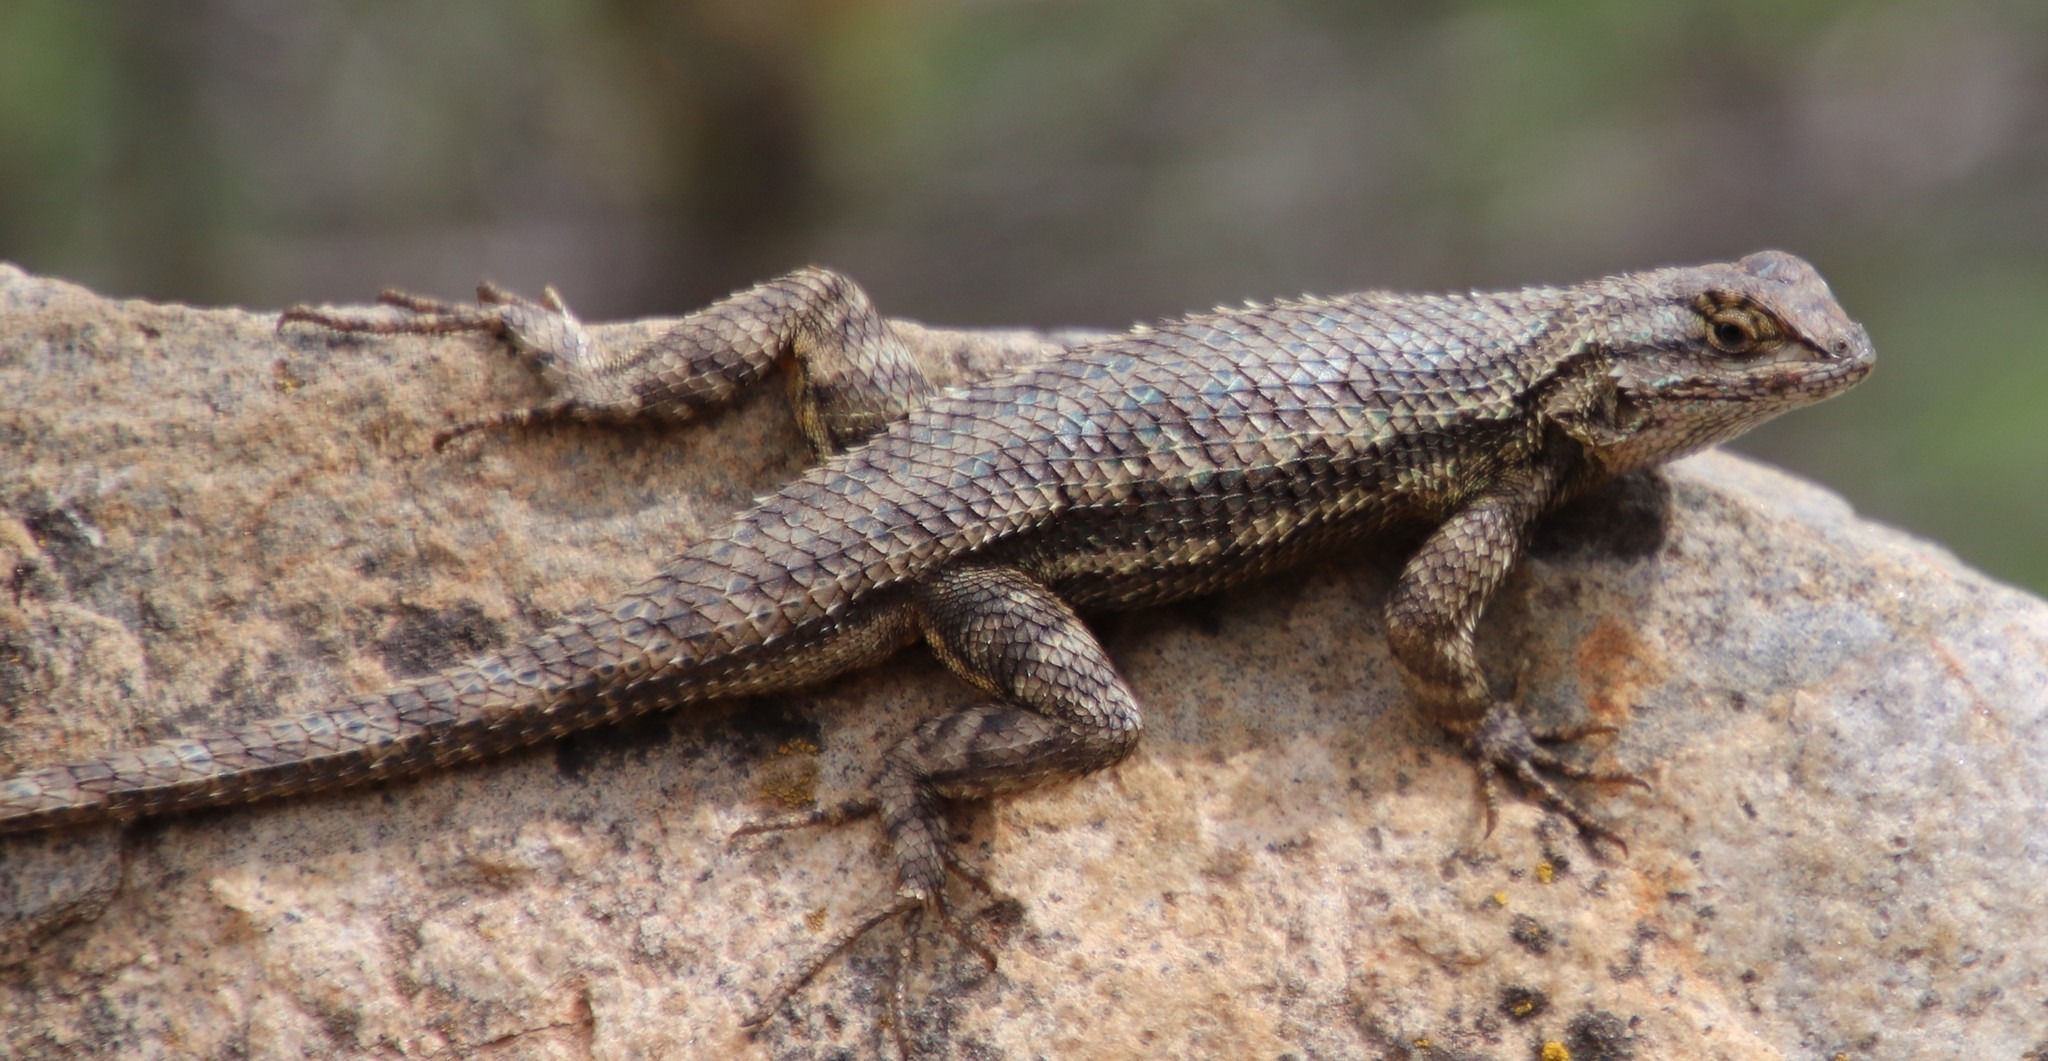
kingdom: Animalia
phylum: Chordata
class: Squamata
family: Phrynosomatidae
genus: Sceloporus
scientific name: Sceloporus occidentalis
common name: Western fence lizard
